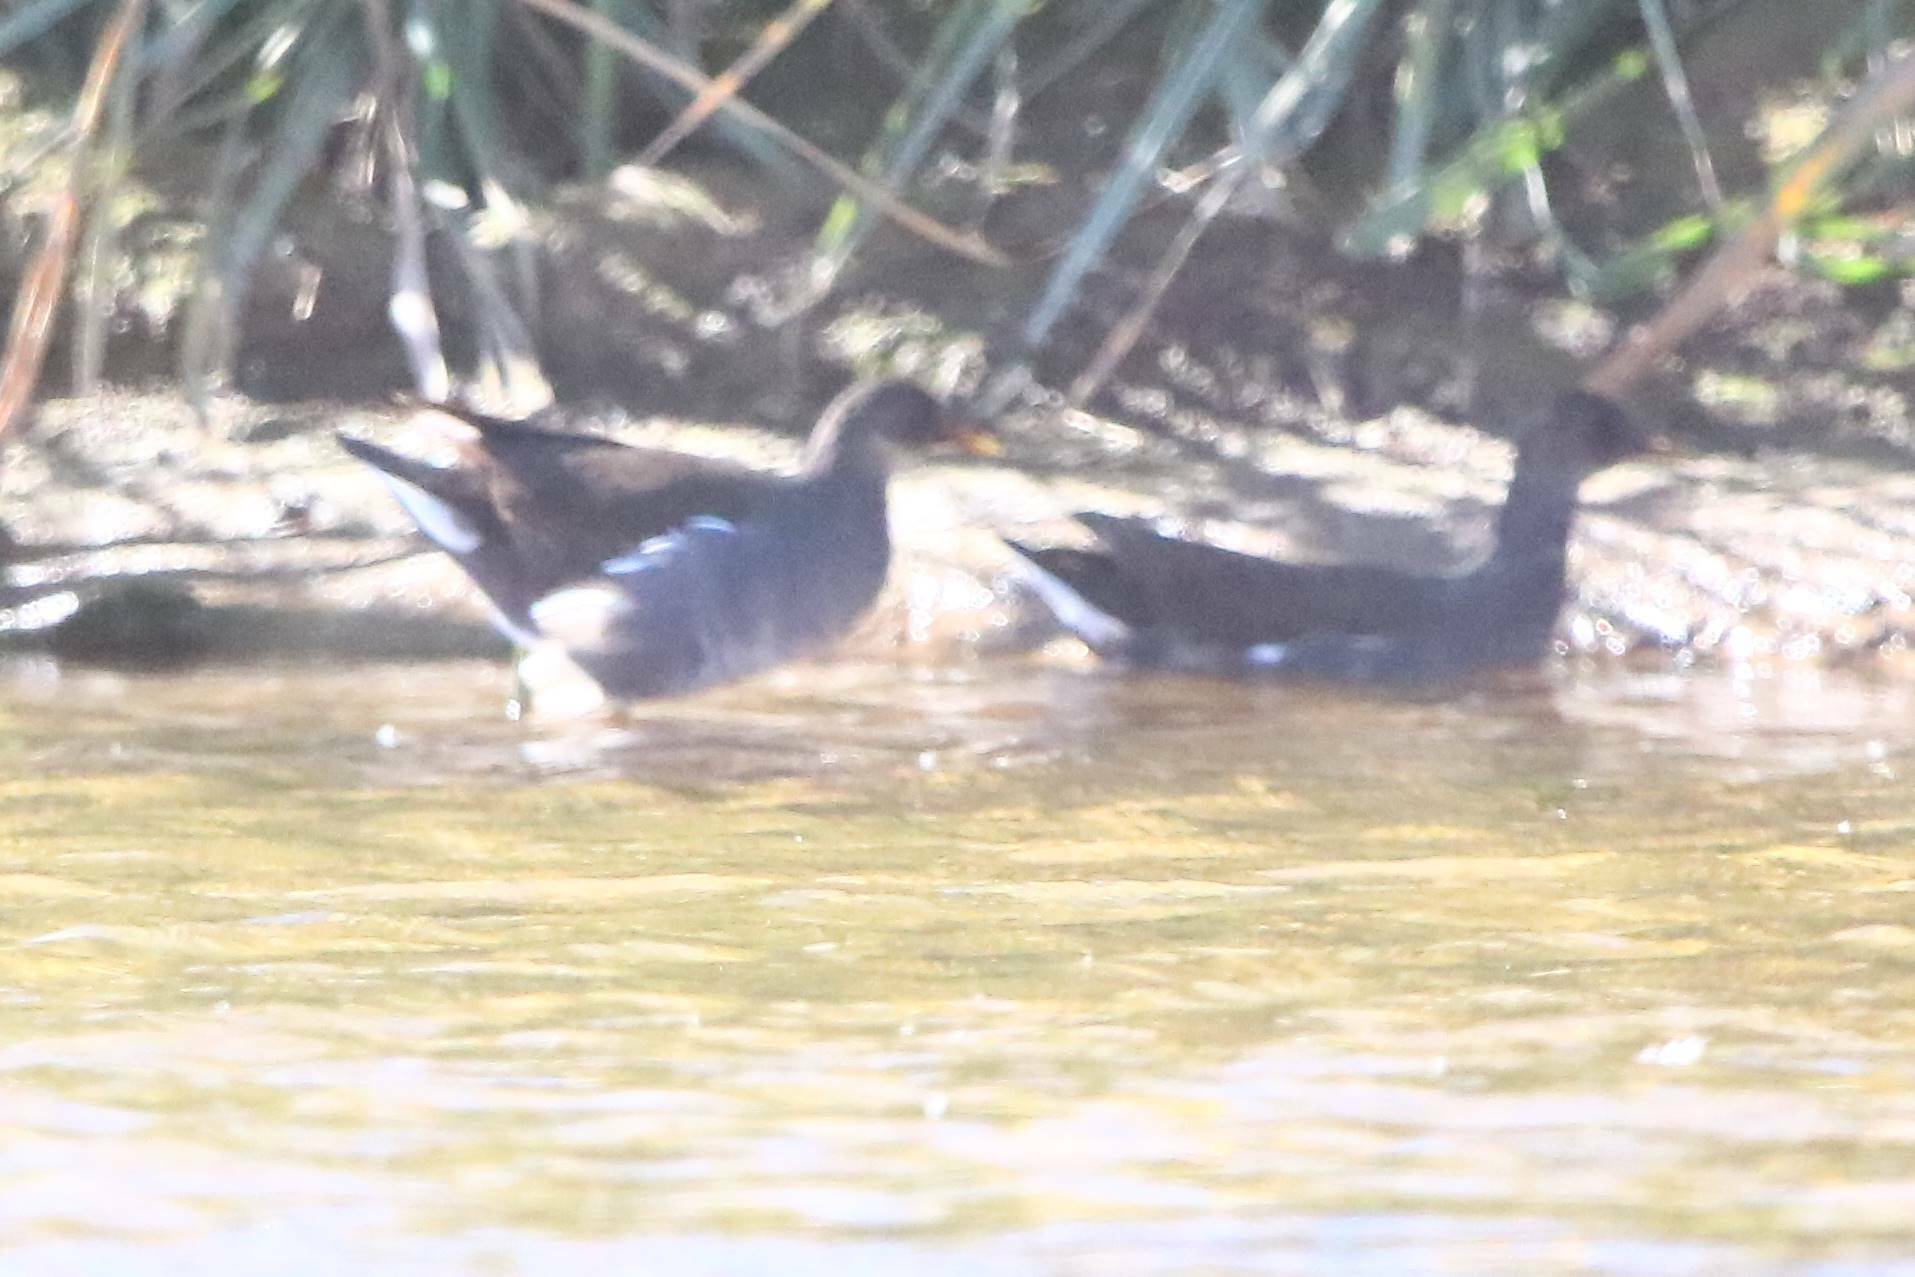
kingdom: Animalia
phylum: Chordata
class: Aves
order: Gruiformes
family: Rallidae
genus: Gallinula
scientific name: Gallinula chloropus
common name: Common moorhen
